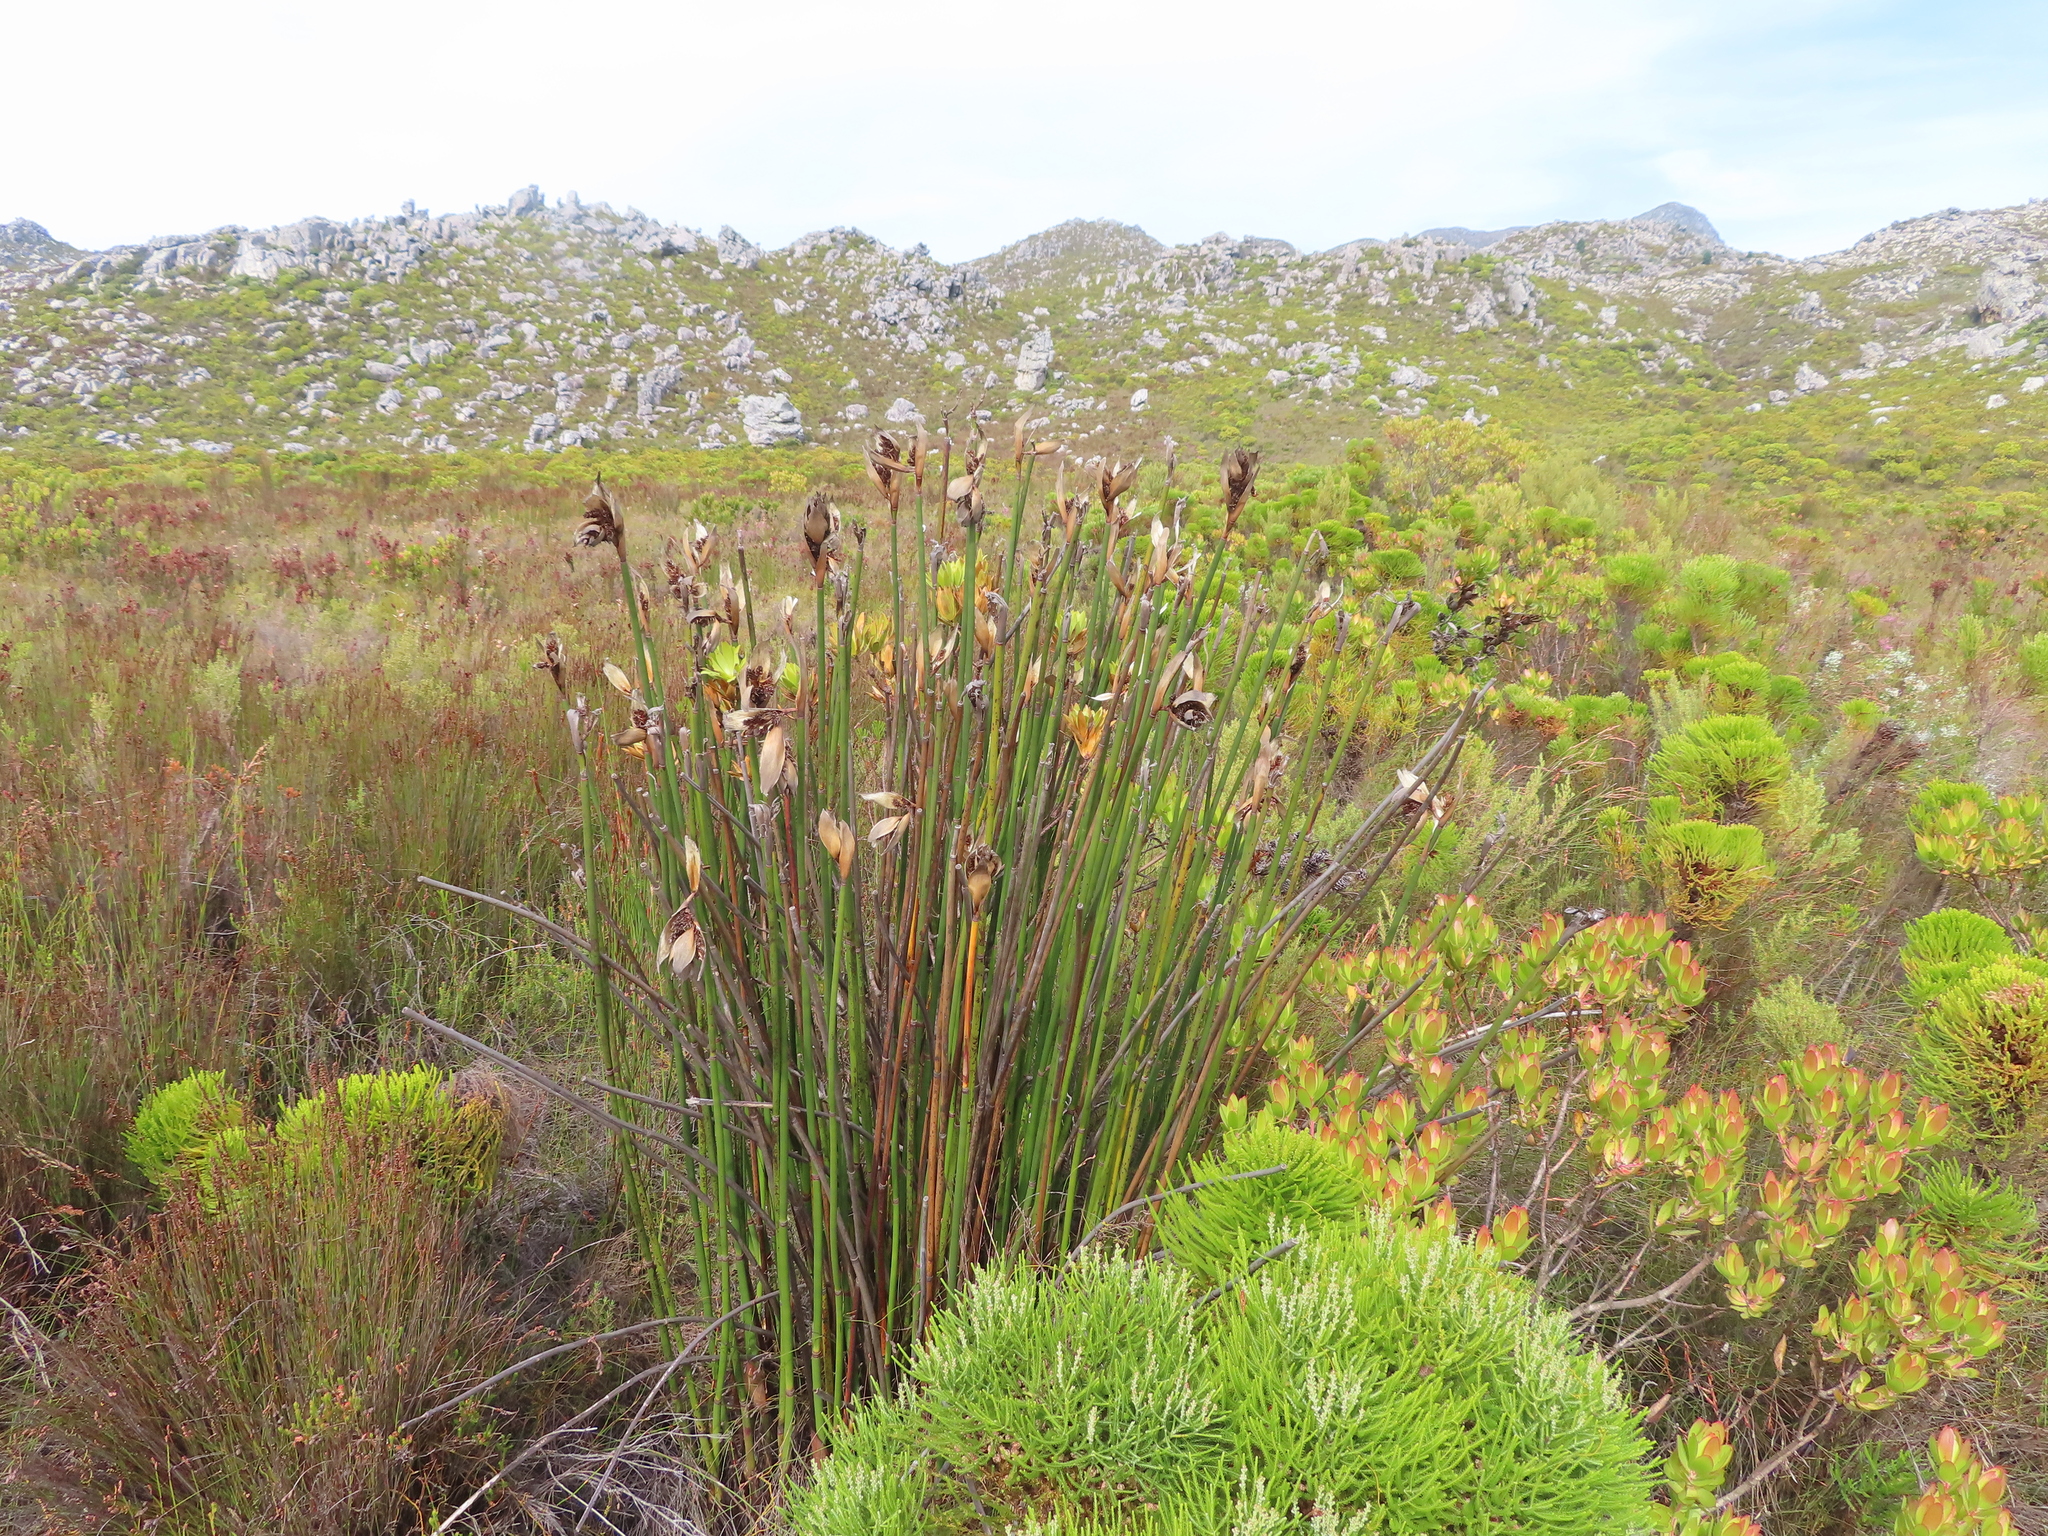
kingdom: Plantae
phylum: Tracheophyta
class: Liliopsida
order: Poales
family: Restionaceae
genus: Elegia
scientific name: Elegia mucronata
